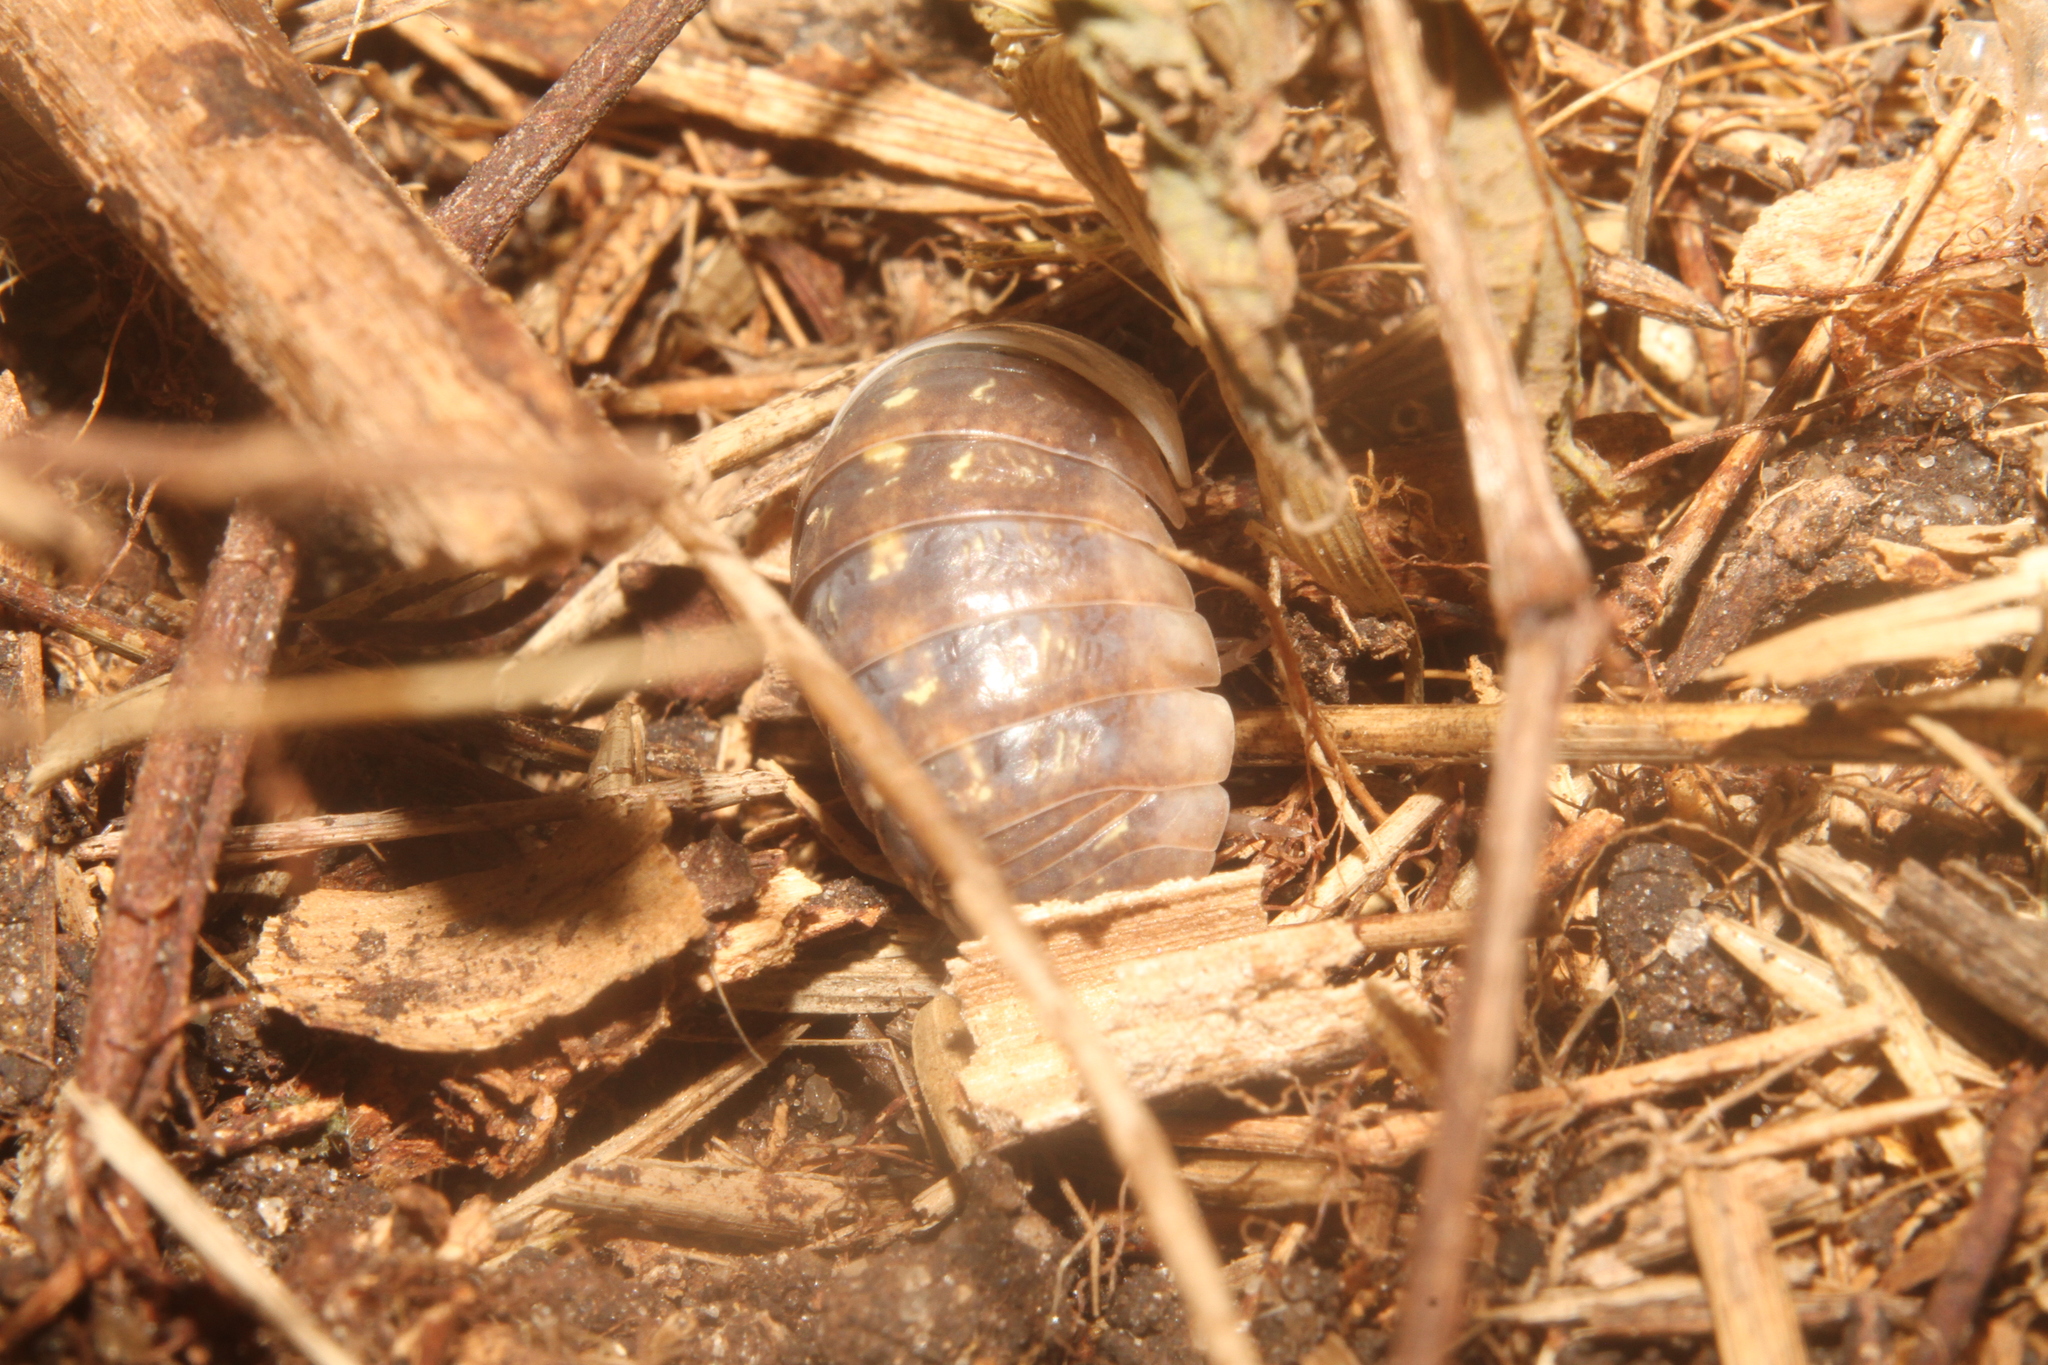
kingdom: Animalia
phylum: Arthropoda
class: Malacostraca
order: Isopoda
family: Armadillidiidae
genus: Armadillidium
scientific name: Armadillidium vulgare
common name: Common pill woodlouse
